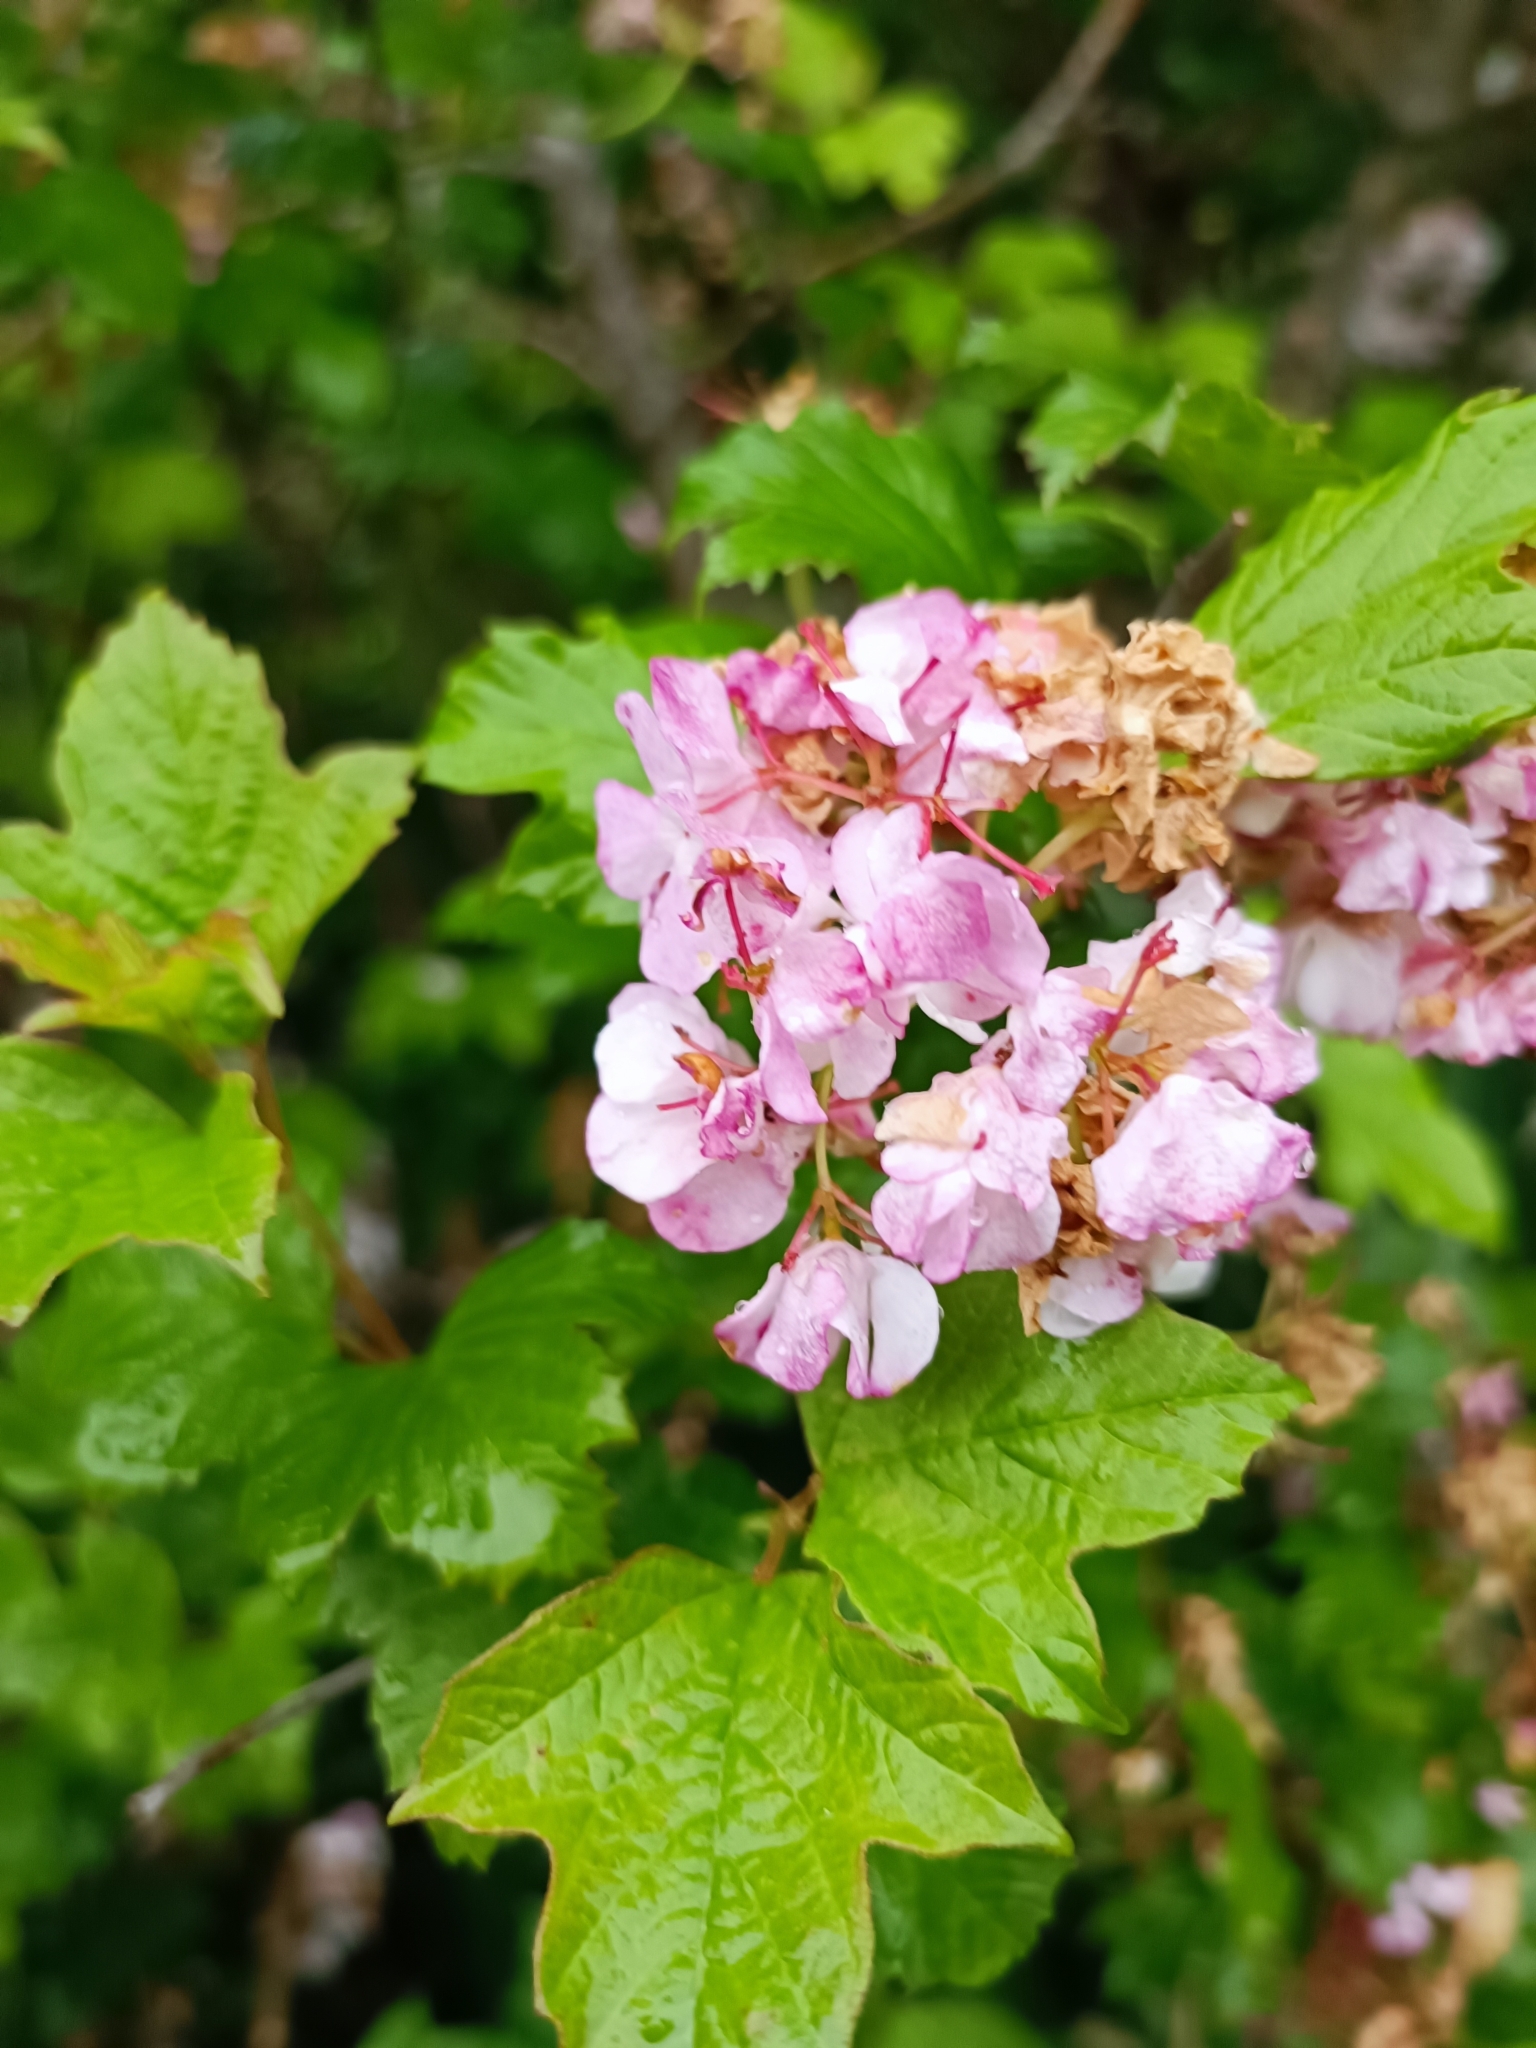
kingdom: Plantae
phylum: Tracheophyta
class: Magnoliopsida
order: Dipsacales
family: Viburnaceae
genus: Viburnum
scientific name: Viburnum opulus
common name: Guelder-rose
